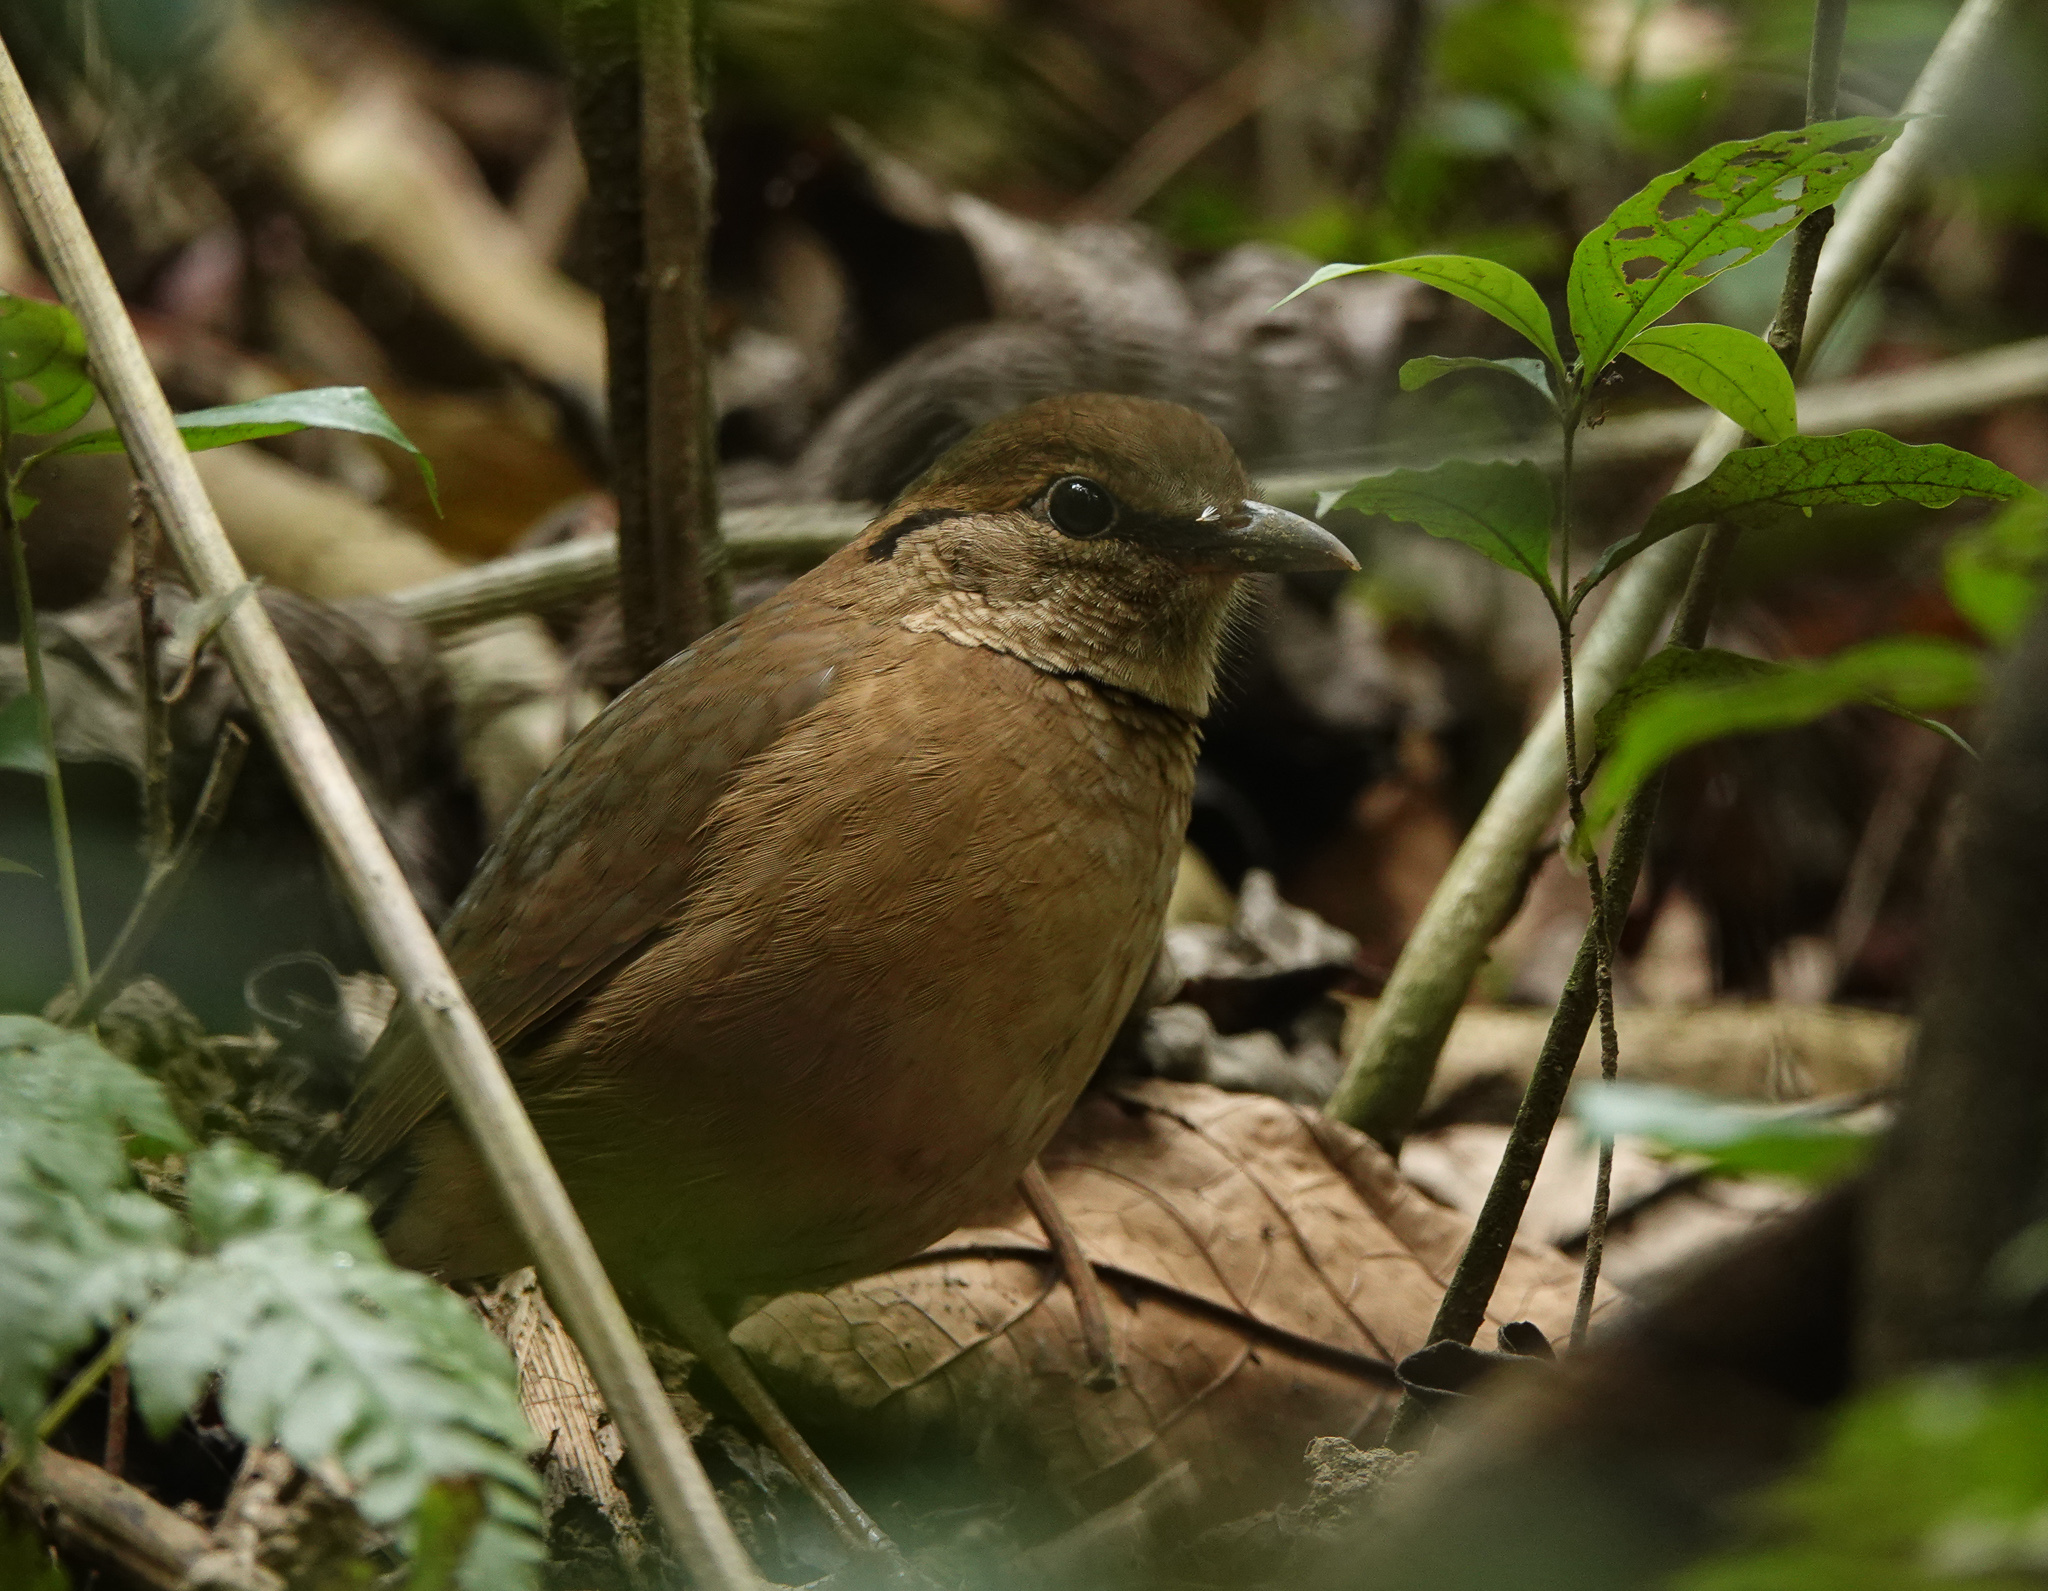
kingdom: Animalia
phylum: Chordata
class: Aves
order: Passeriformes
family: Pittidae
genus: Pitta
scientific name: Pitta nipalensis
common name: Blue-naped pitta
